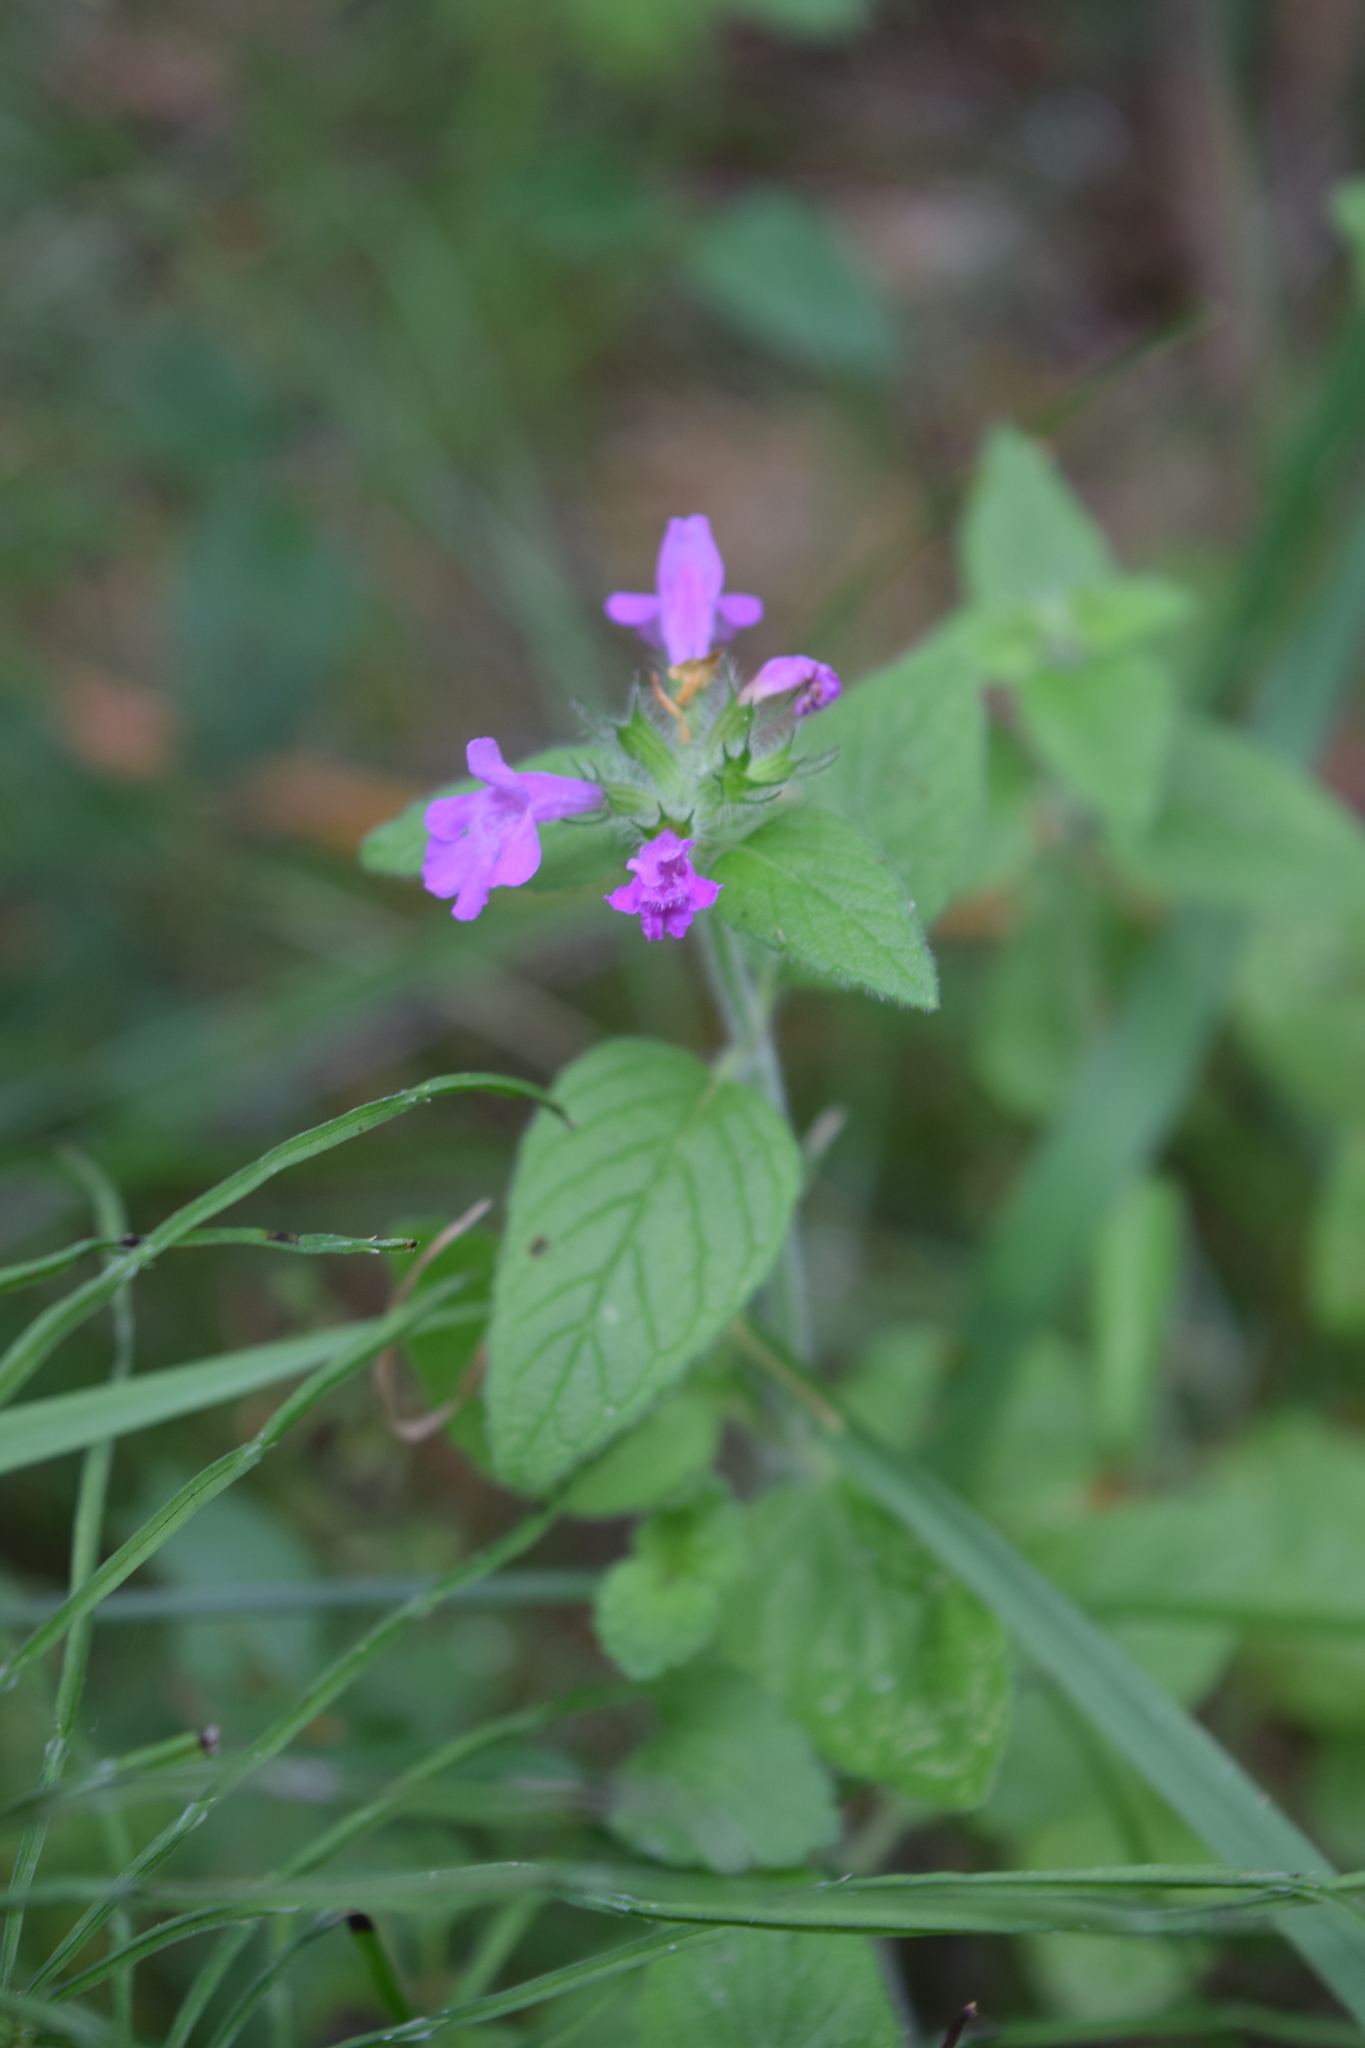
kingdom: Plantae
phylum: Tracheophyta
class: Magnoliopsida
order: Lamiales
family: Lamiaceae
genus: Clinopodium
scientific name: Clinopodium vulgare
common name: Wild basil
